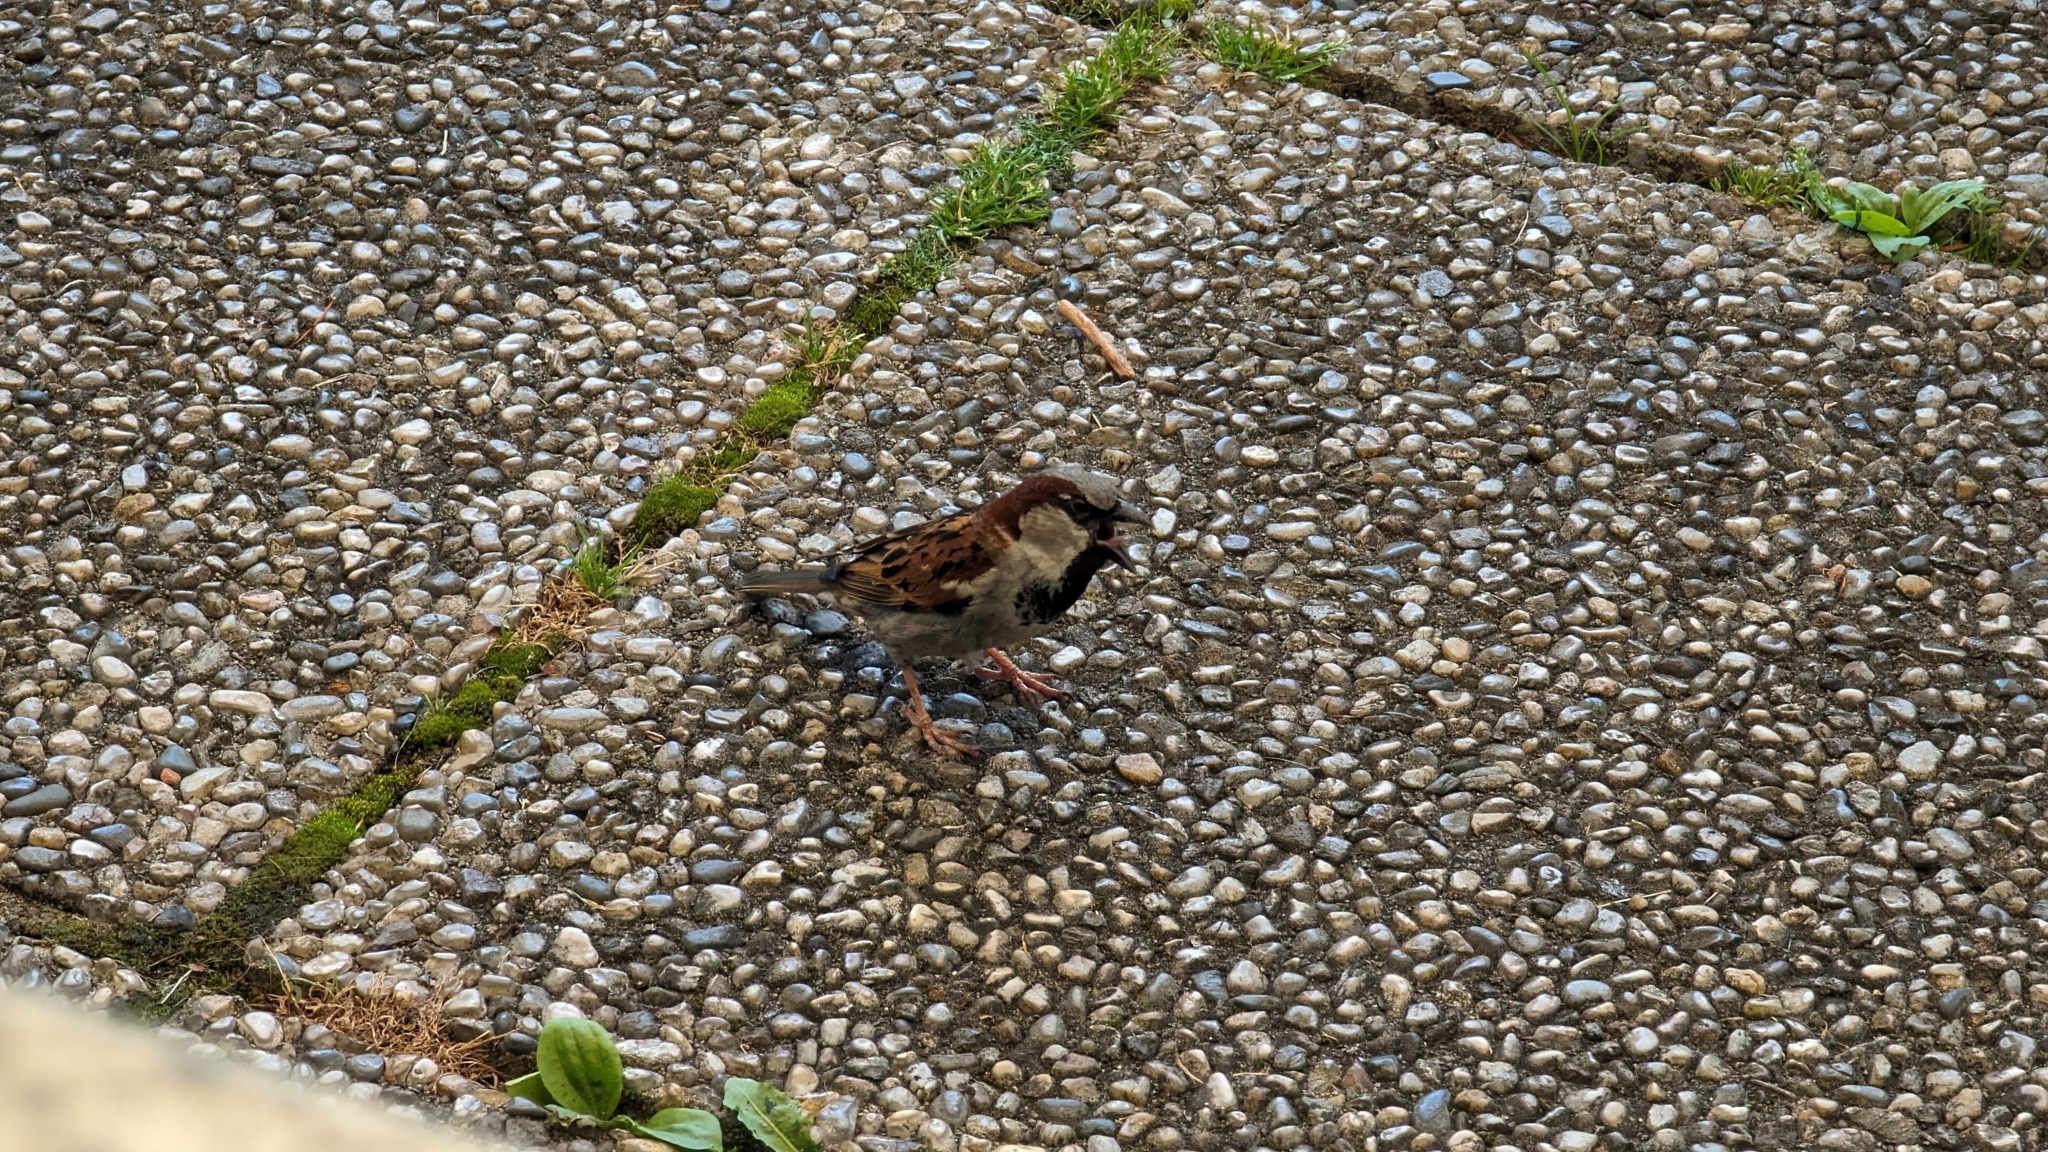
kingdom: Animalia
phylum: Chordata
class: Aves
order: Passeriformes
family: Passeridae
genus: Passer
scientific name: Passer domesticus
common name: House sparrow
